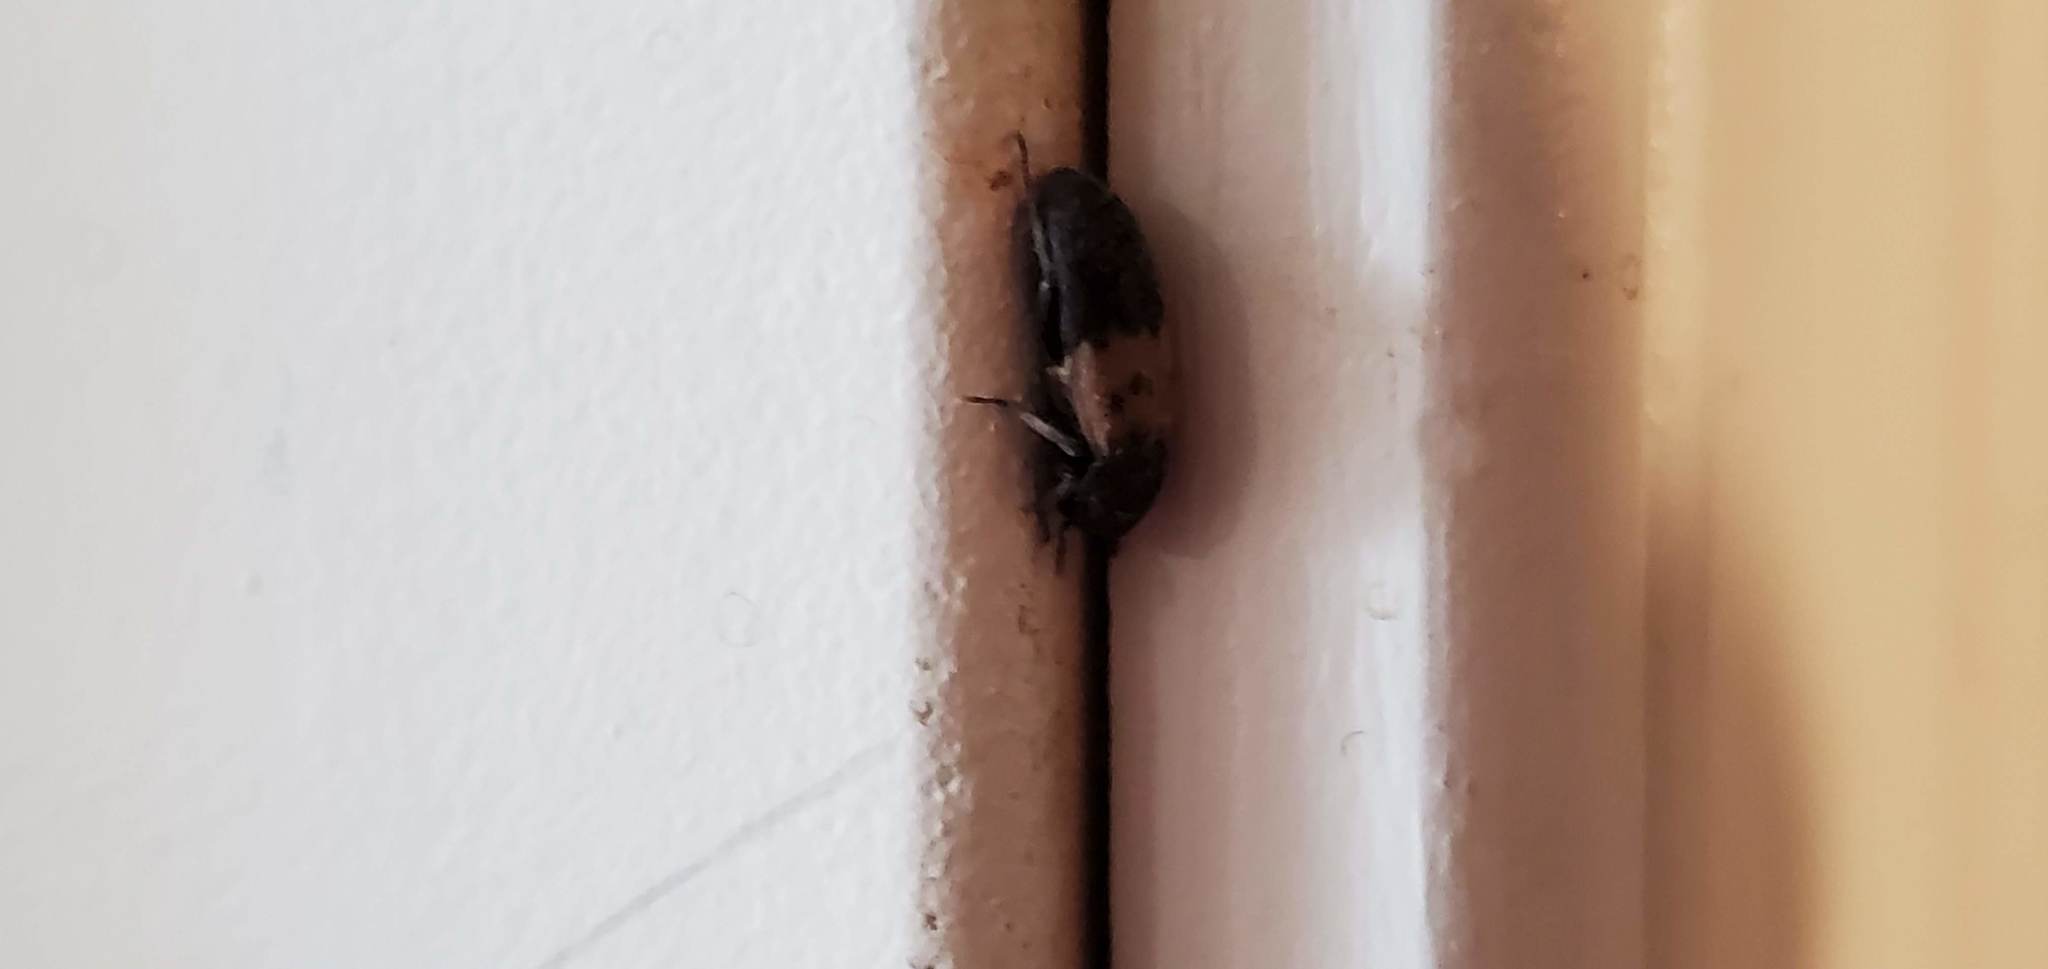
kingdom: Animalia
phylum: Arthropoda
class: Insecta
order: Coleoptera
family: Dermestidae
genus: Dermestes
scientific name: Dermestes lardarius
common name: Larder beetle
